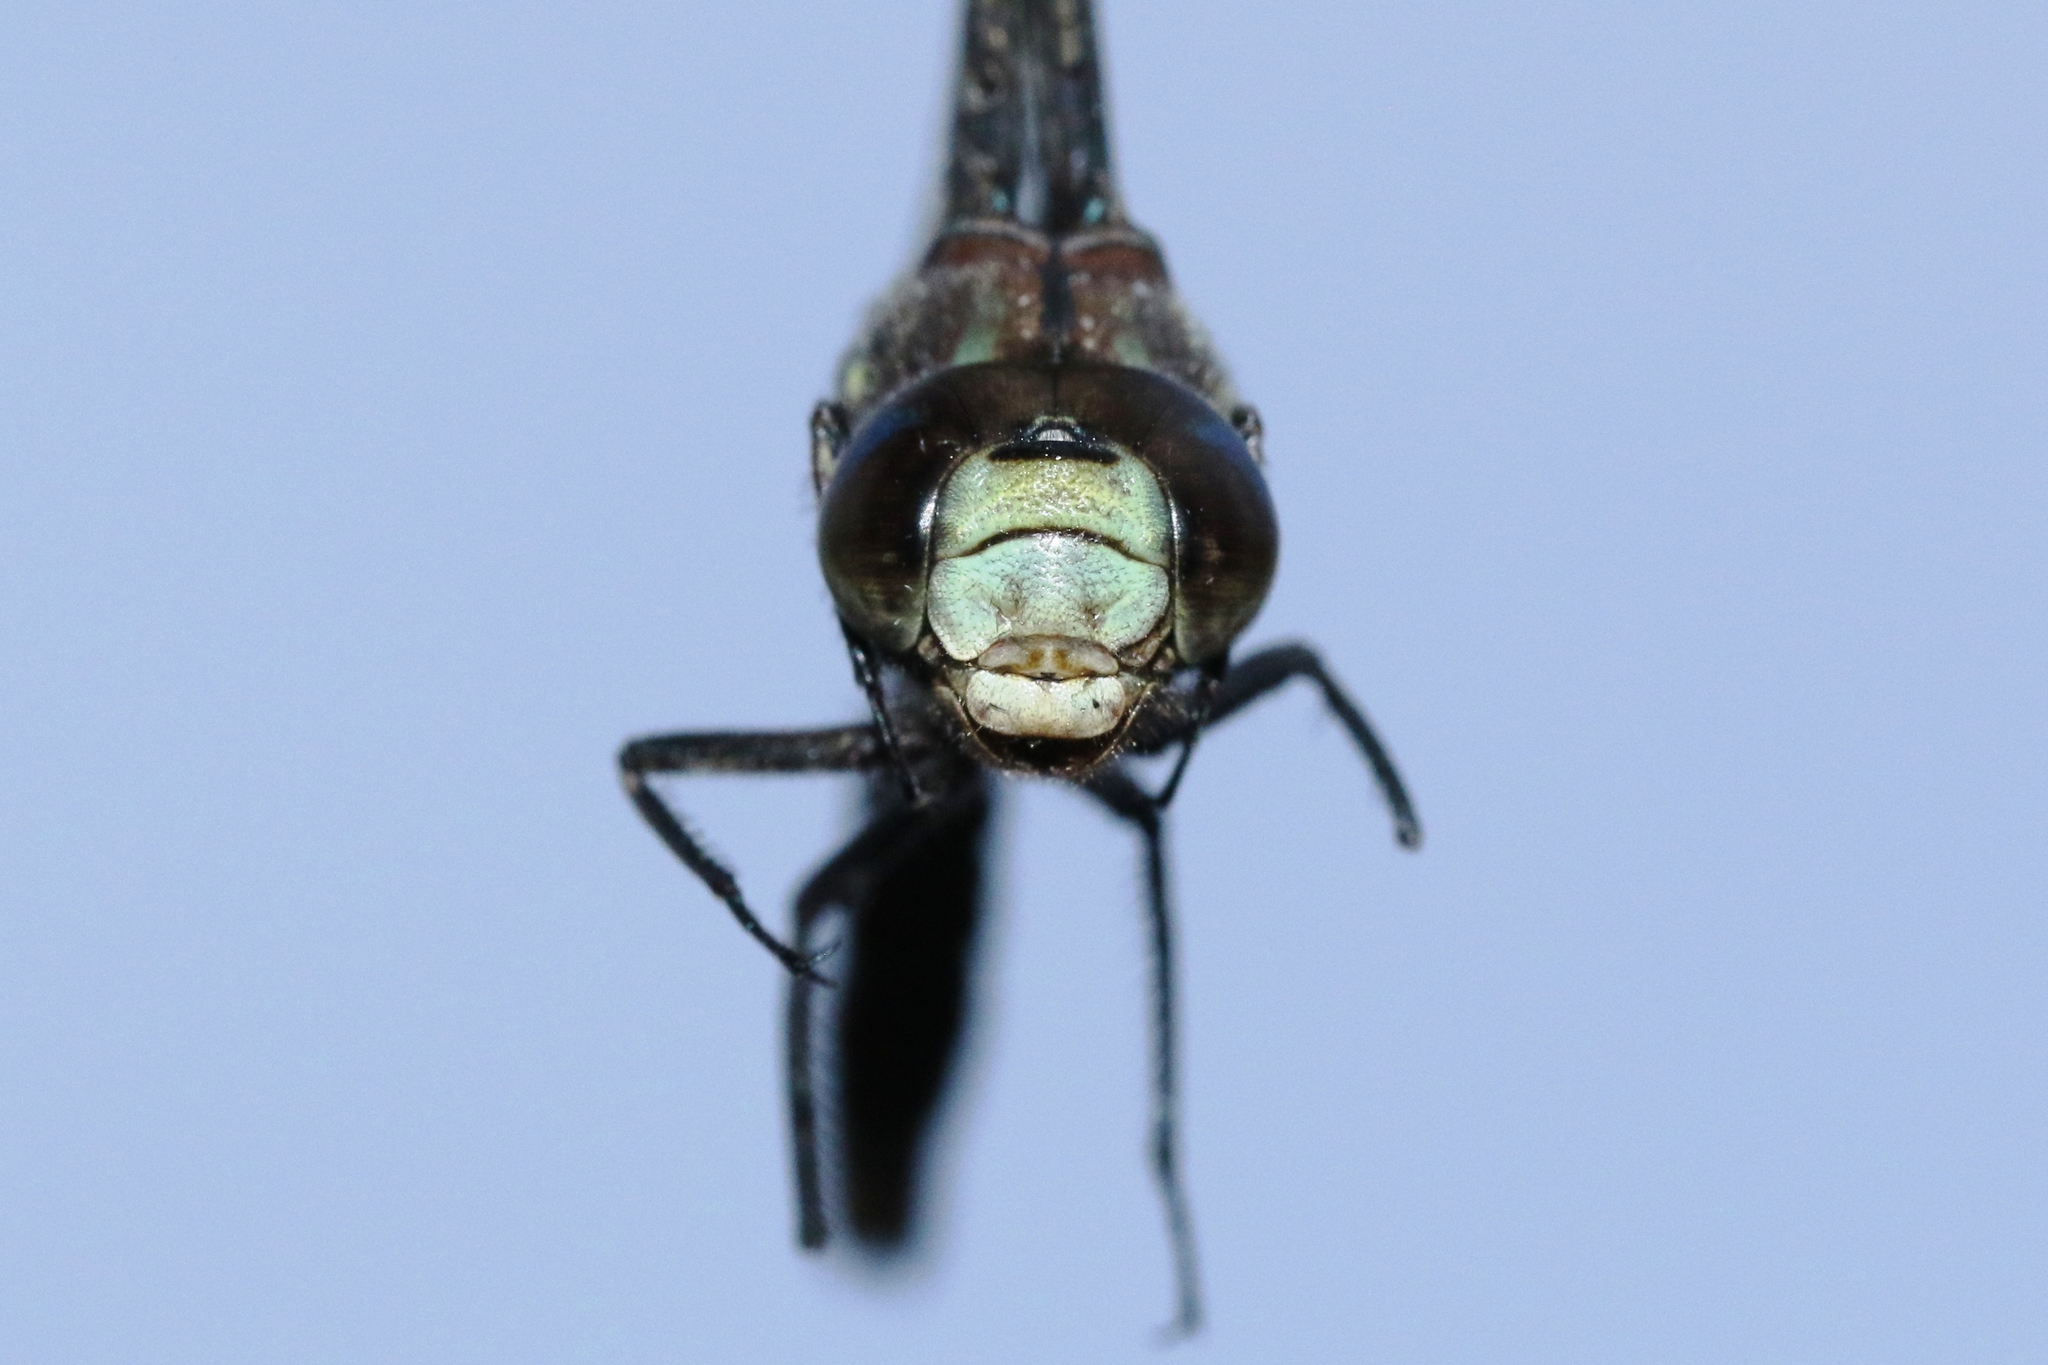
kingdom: Animalia
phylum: Arthropoda
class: Insecta
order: Odonata
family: Aeshnidae
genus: Basiaeschna
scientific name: Basiaeschna janata
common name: Springtime darner
